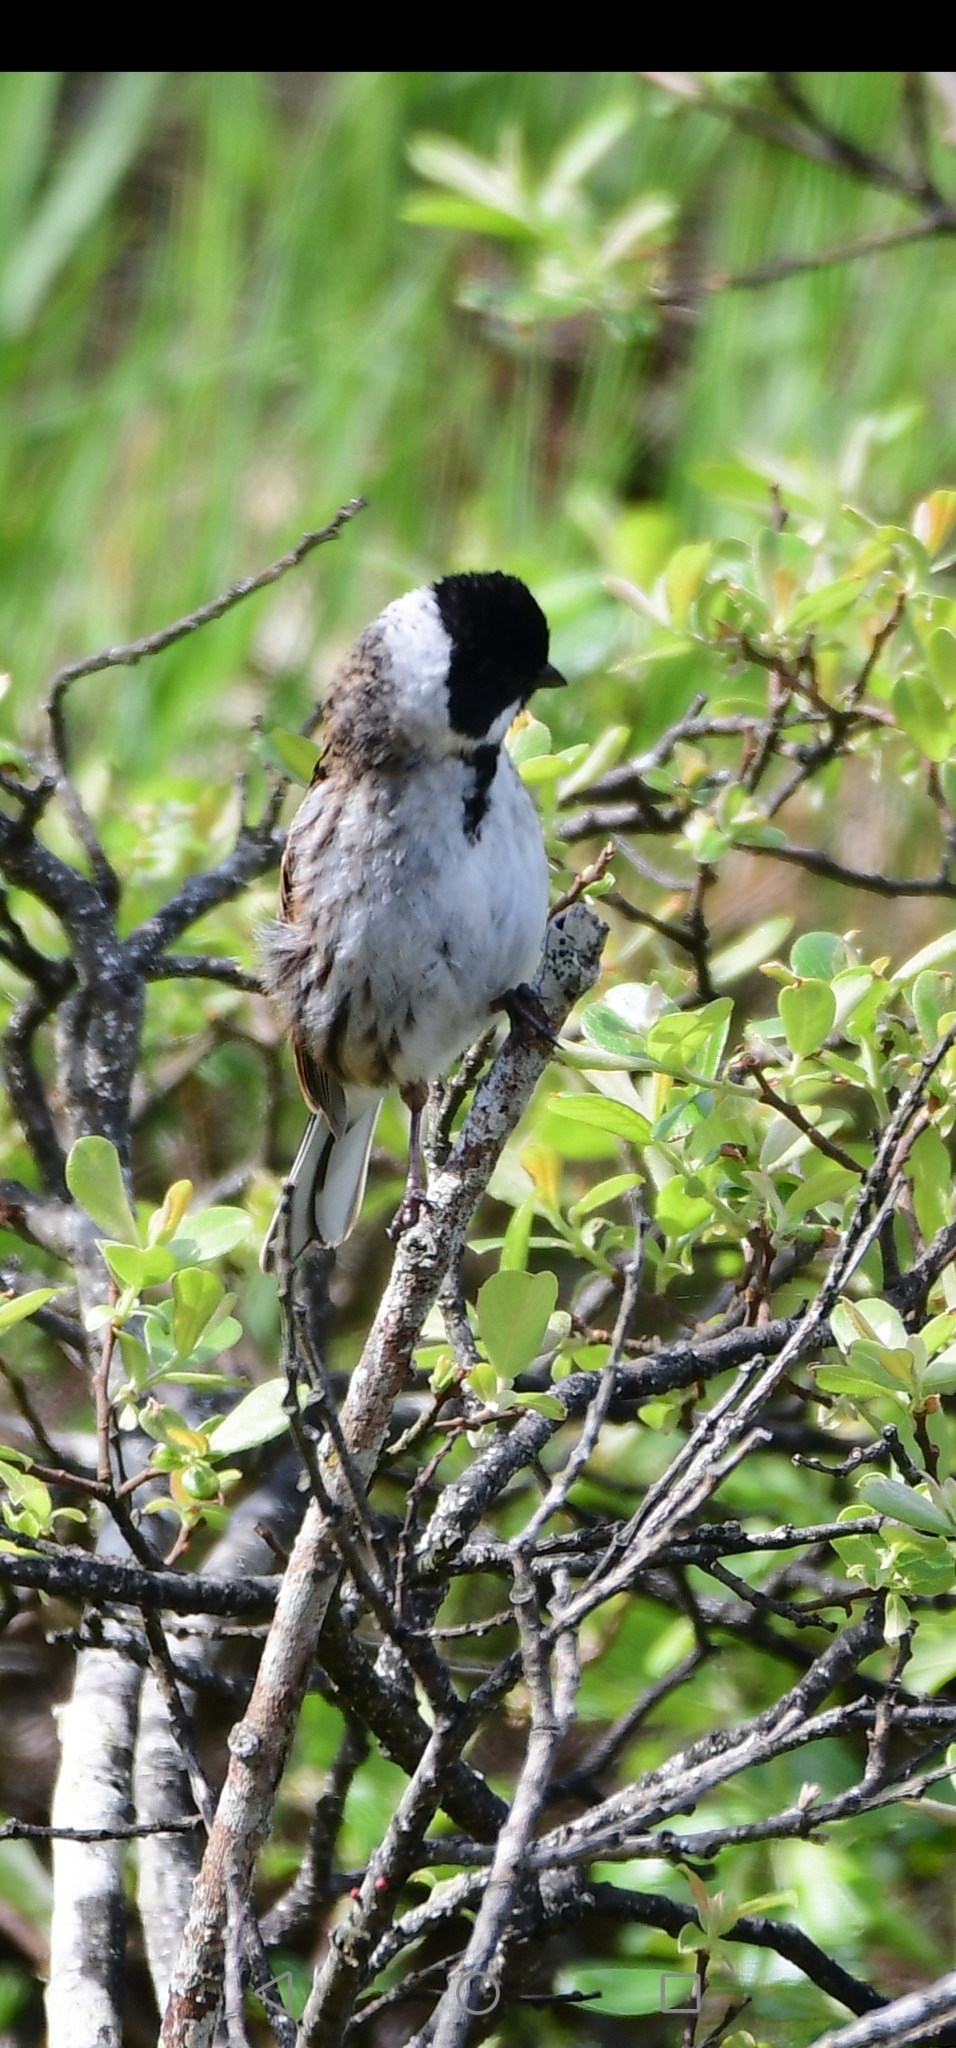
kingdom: Animalia
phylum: Chordata
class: Aves
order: Passeriformes
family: Emberizidae
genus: Emberiza
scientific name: Emberiza schoeniclus
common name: Reed bunting
